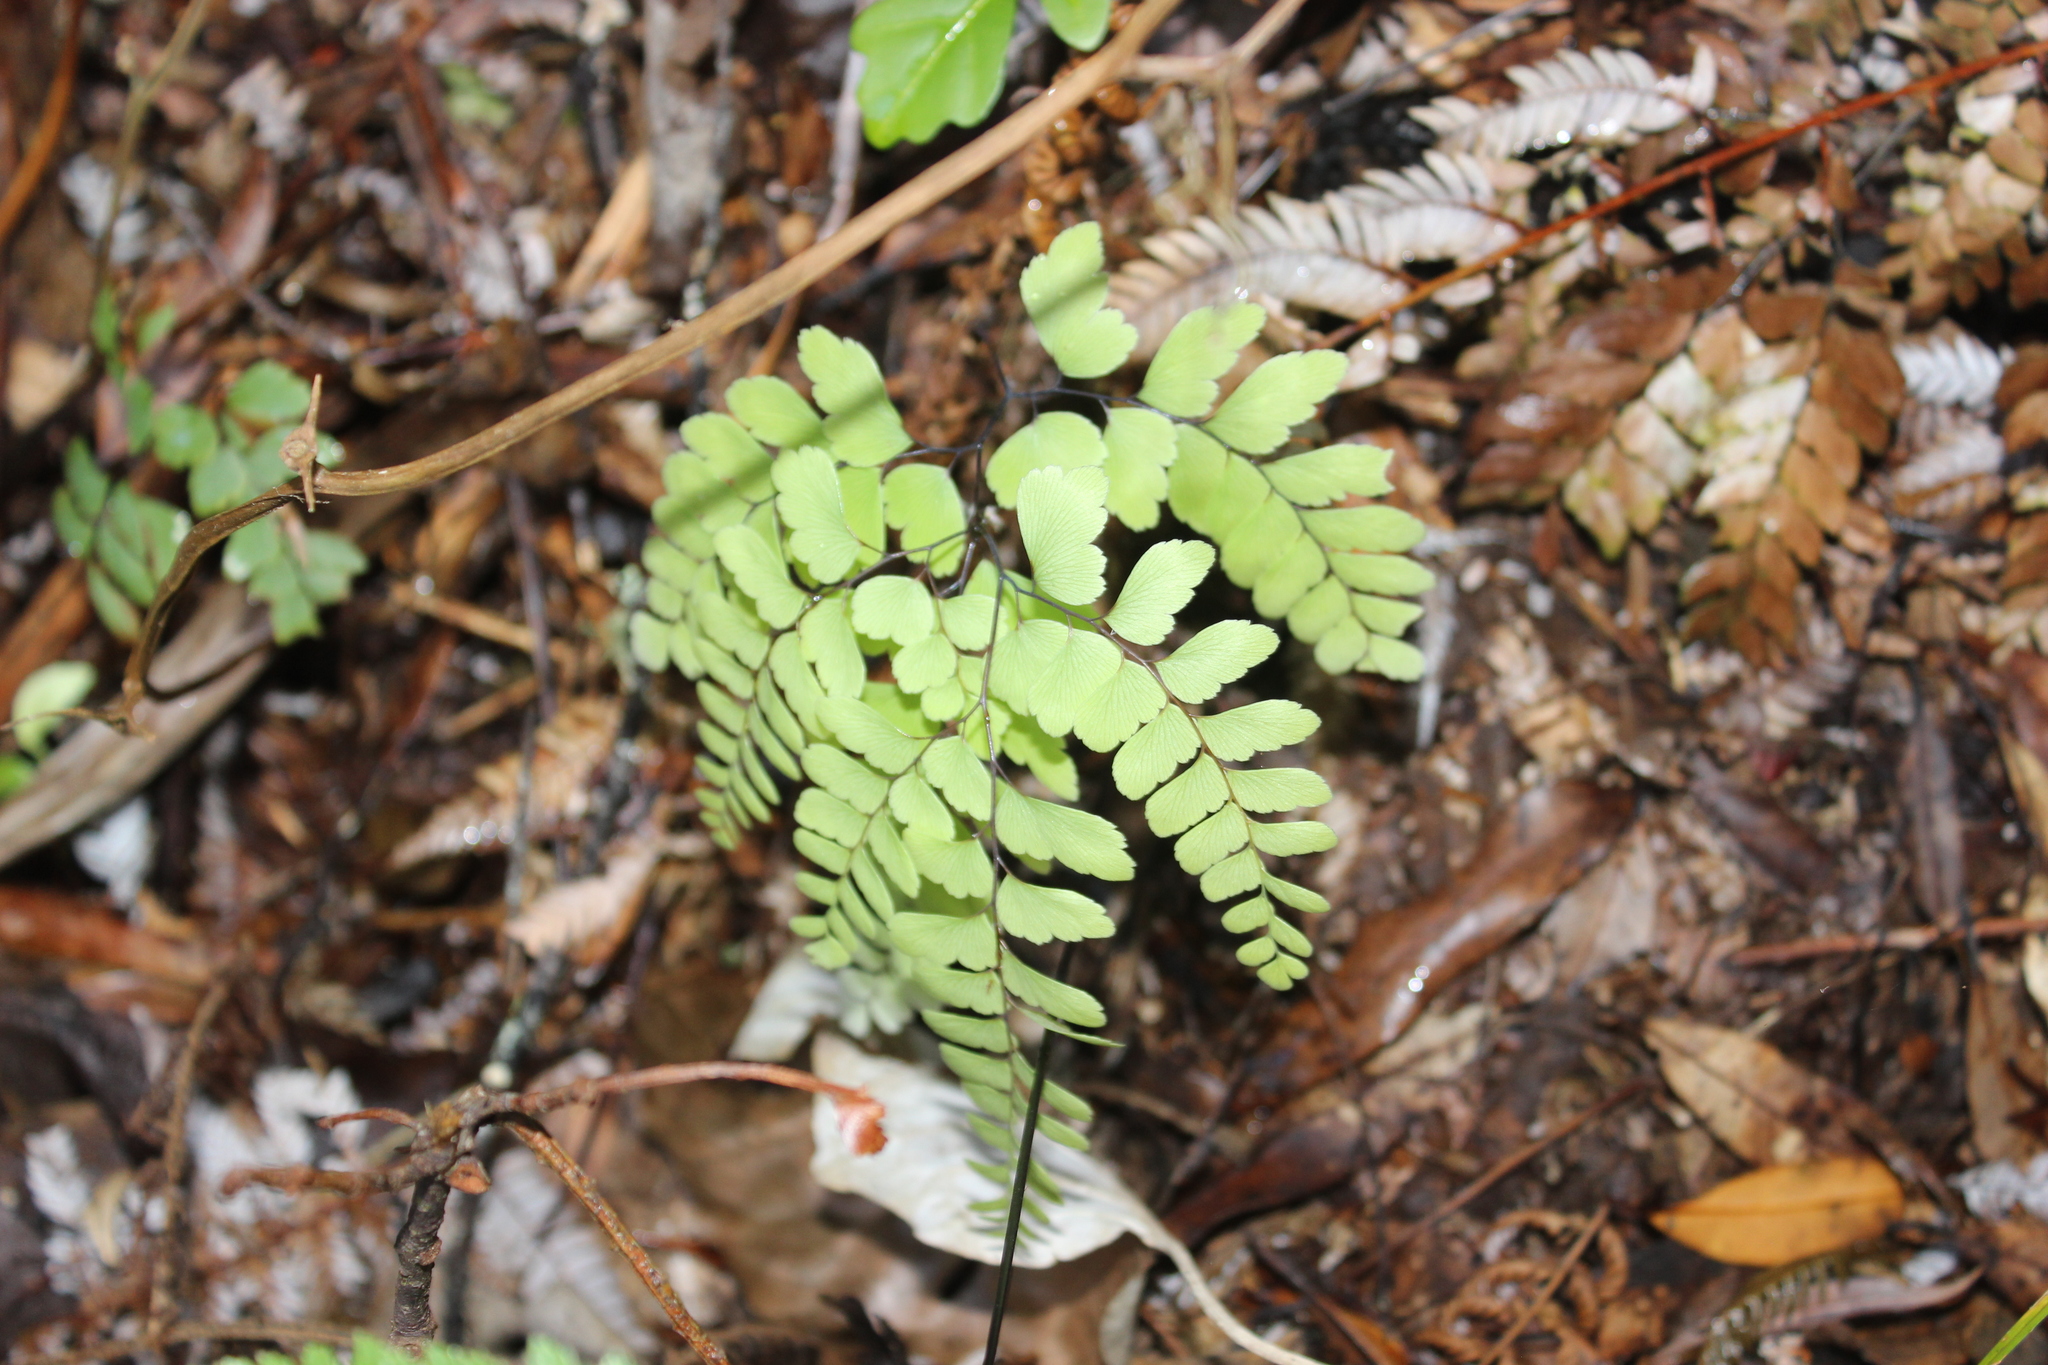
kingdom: Plantae
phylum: Tracheophyta
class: Polypodiopsida
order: Polypodiales
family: Pteridaceae
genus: Adiantum
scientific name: Adiantum cunninghamii
